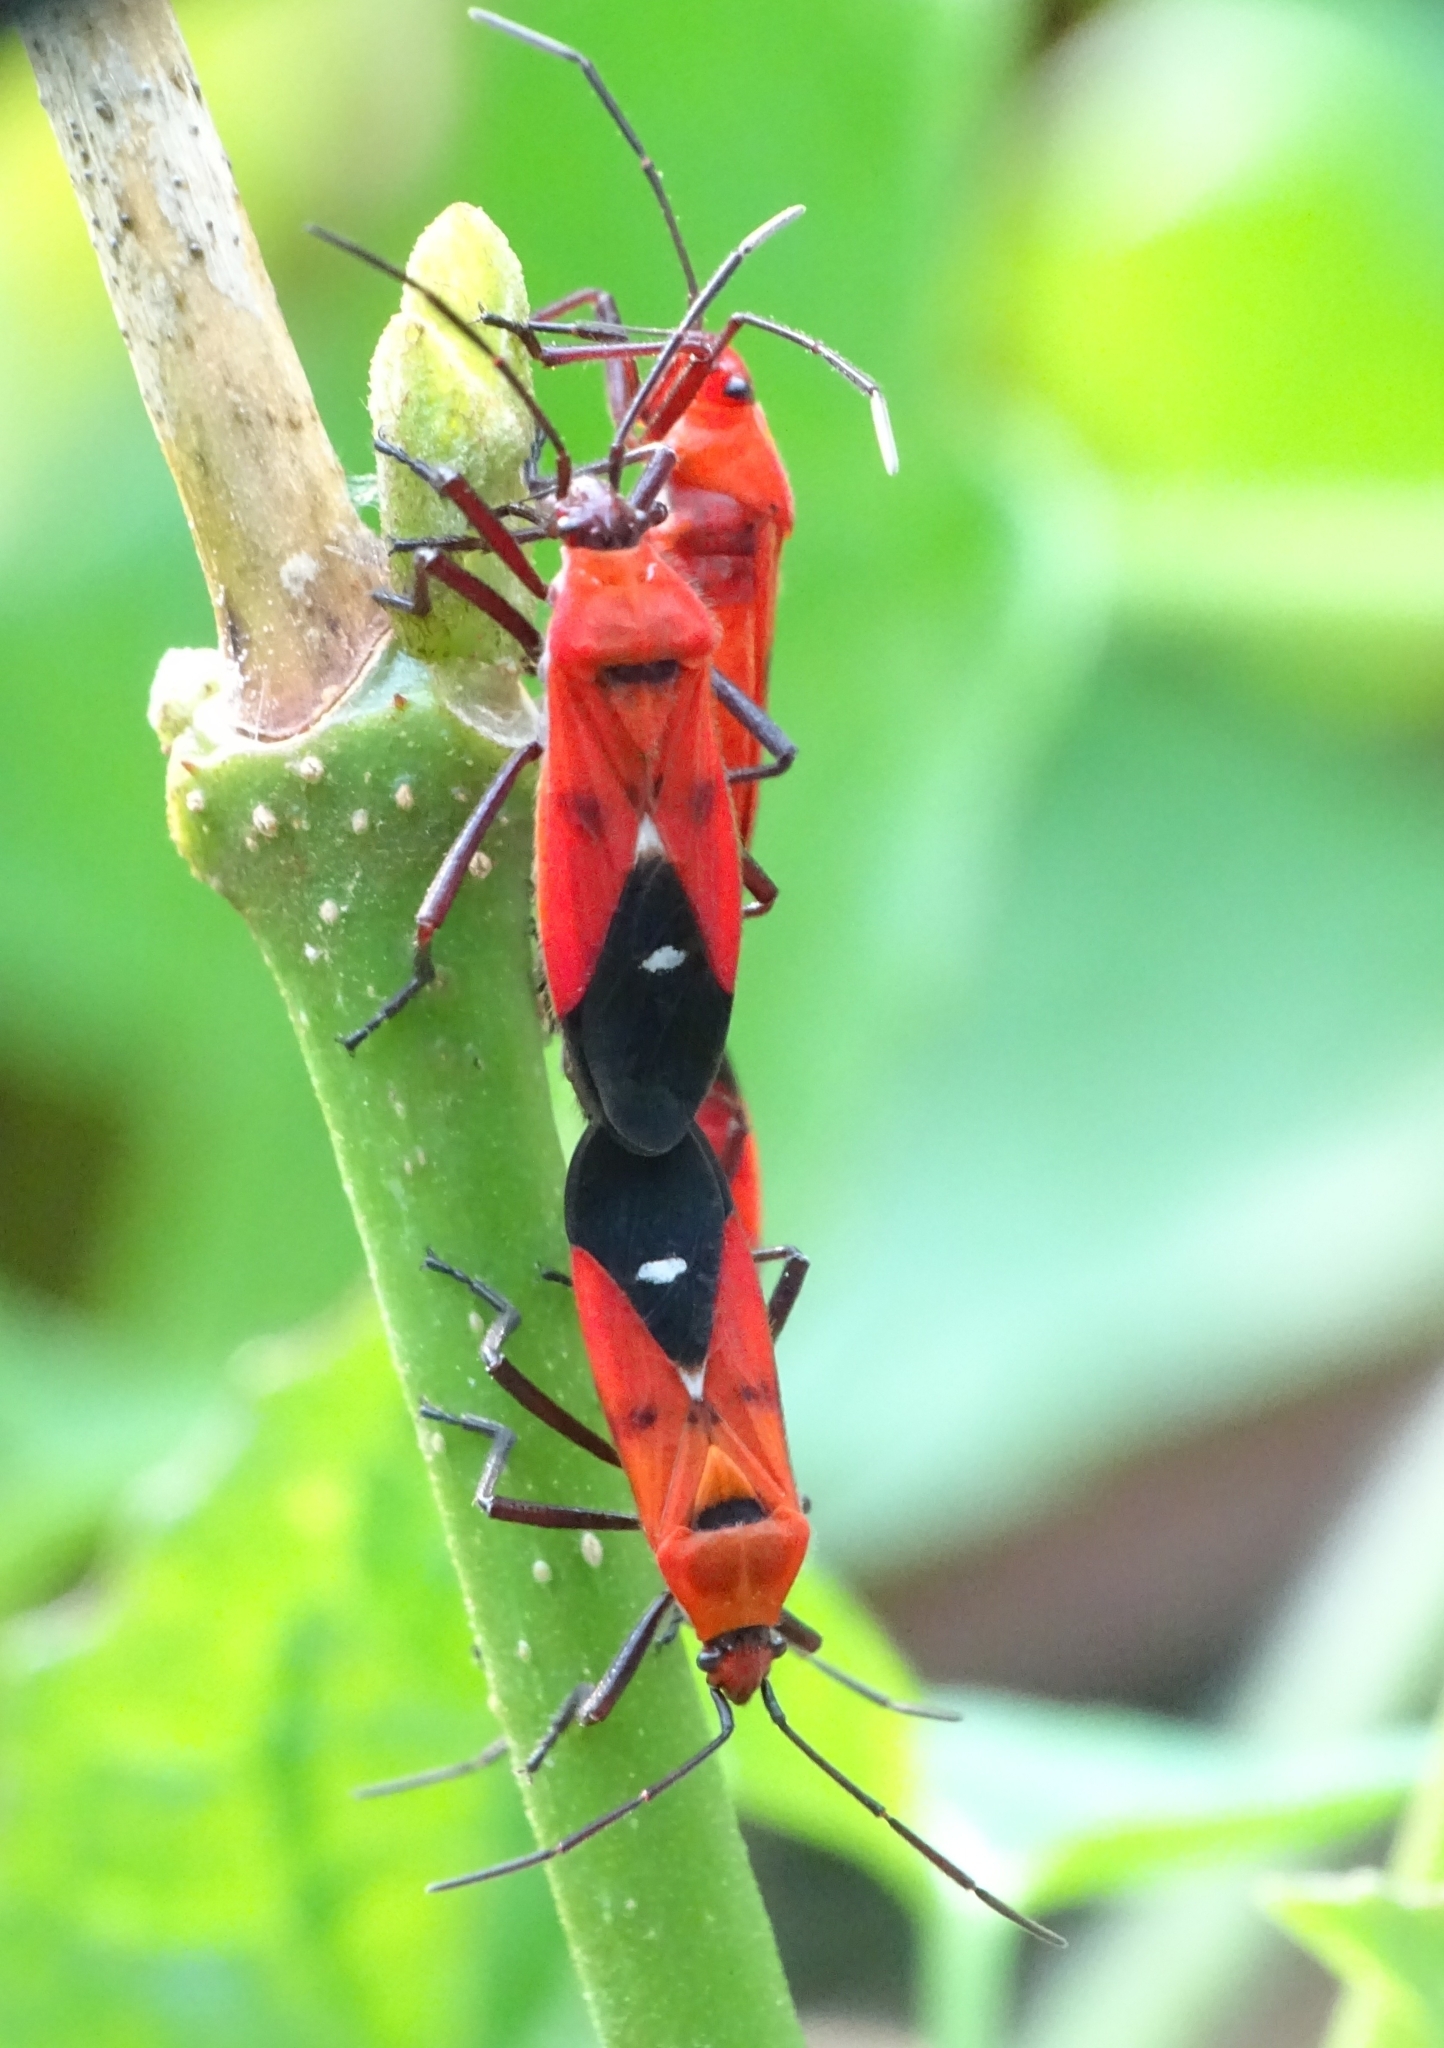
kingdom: Animalia
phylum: Arthropoda
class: Insecta
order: Hemiptera
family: Lygaeidae
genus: Oncopeltus
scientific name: Oncopeltus nigriceps
